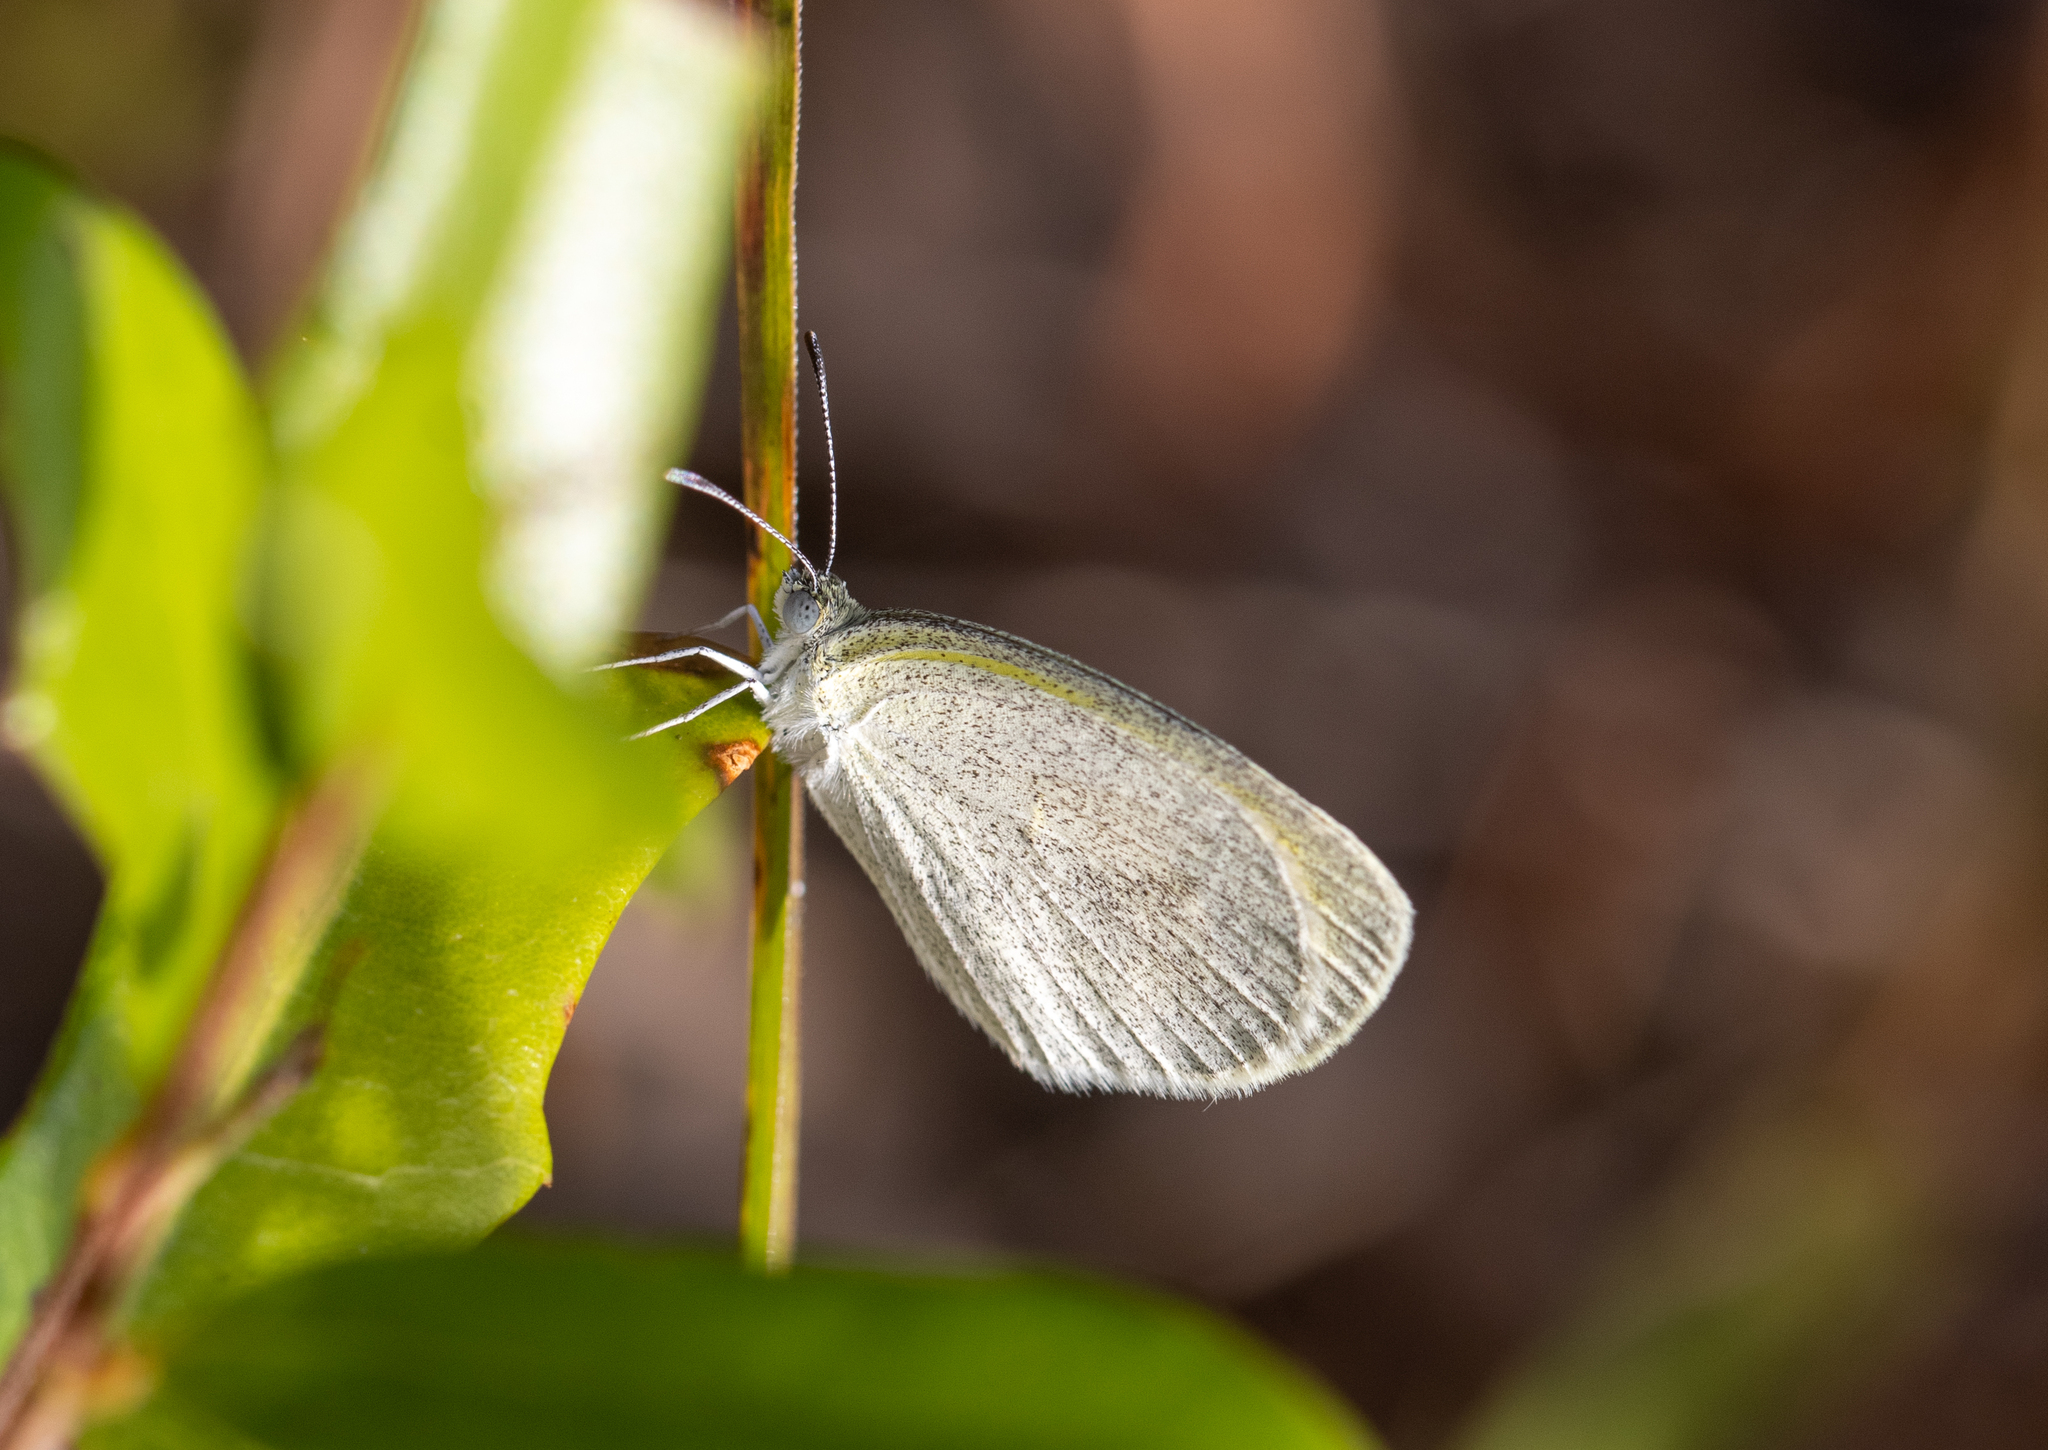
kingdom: Animalia
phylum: Arthropoda
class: Insecta
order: Lepidoptera
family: Pieridae
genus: Eurema
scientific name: Eurema daira
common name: Barred sulphur
